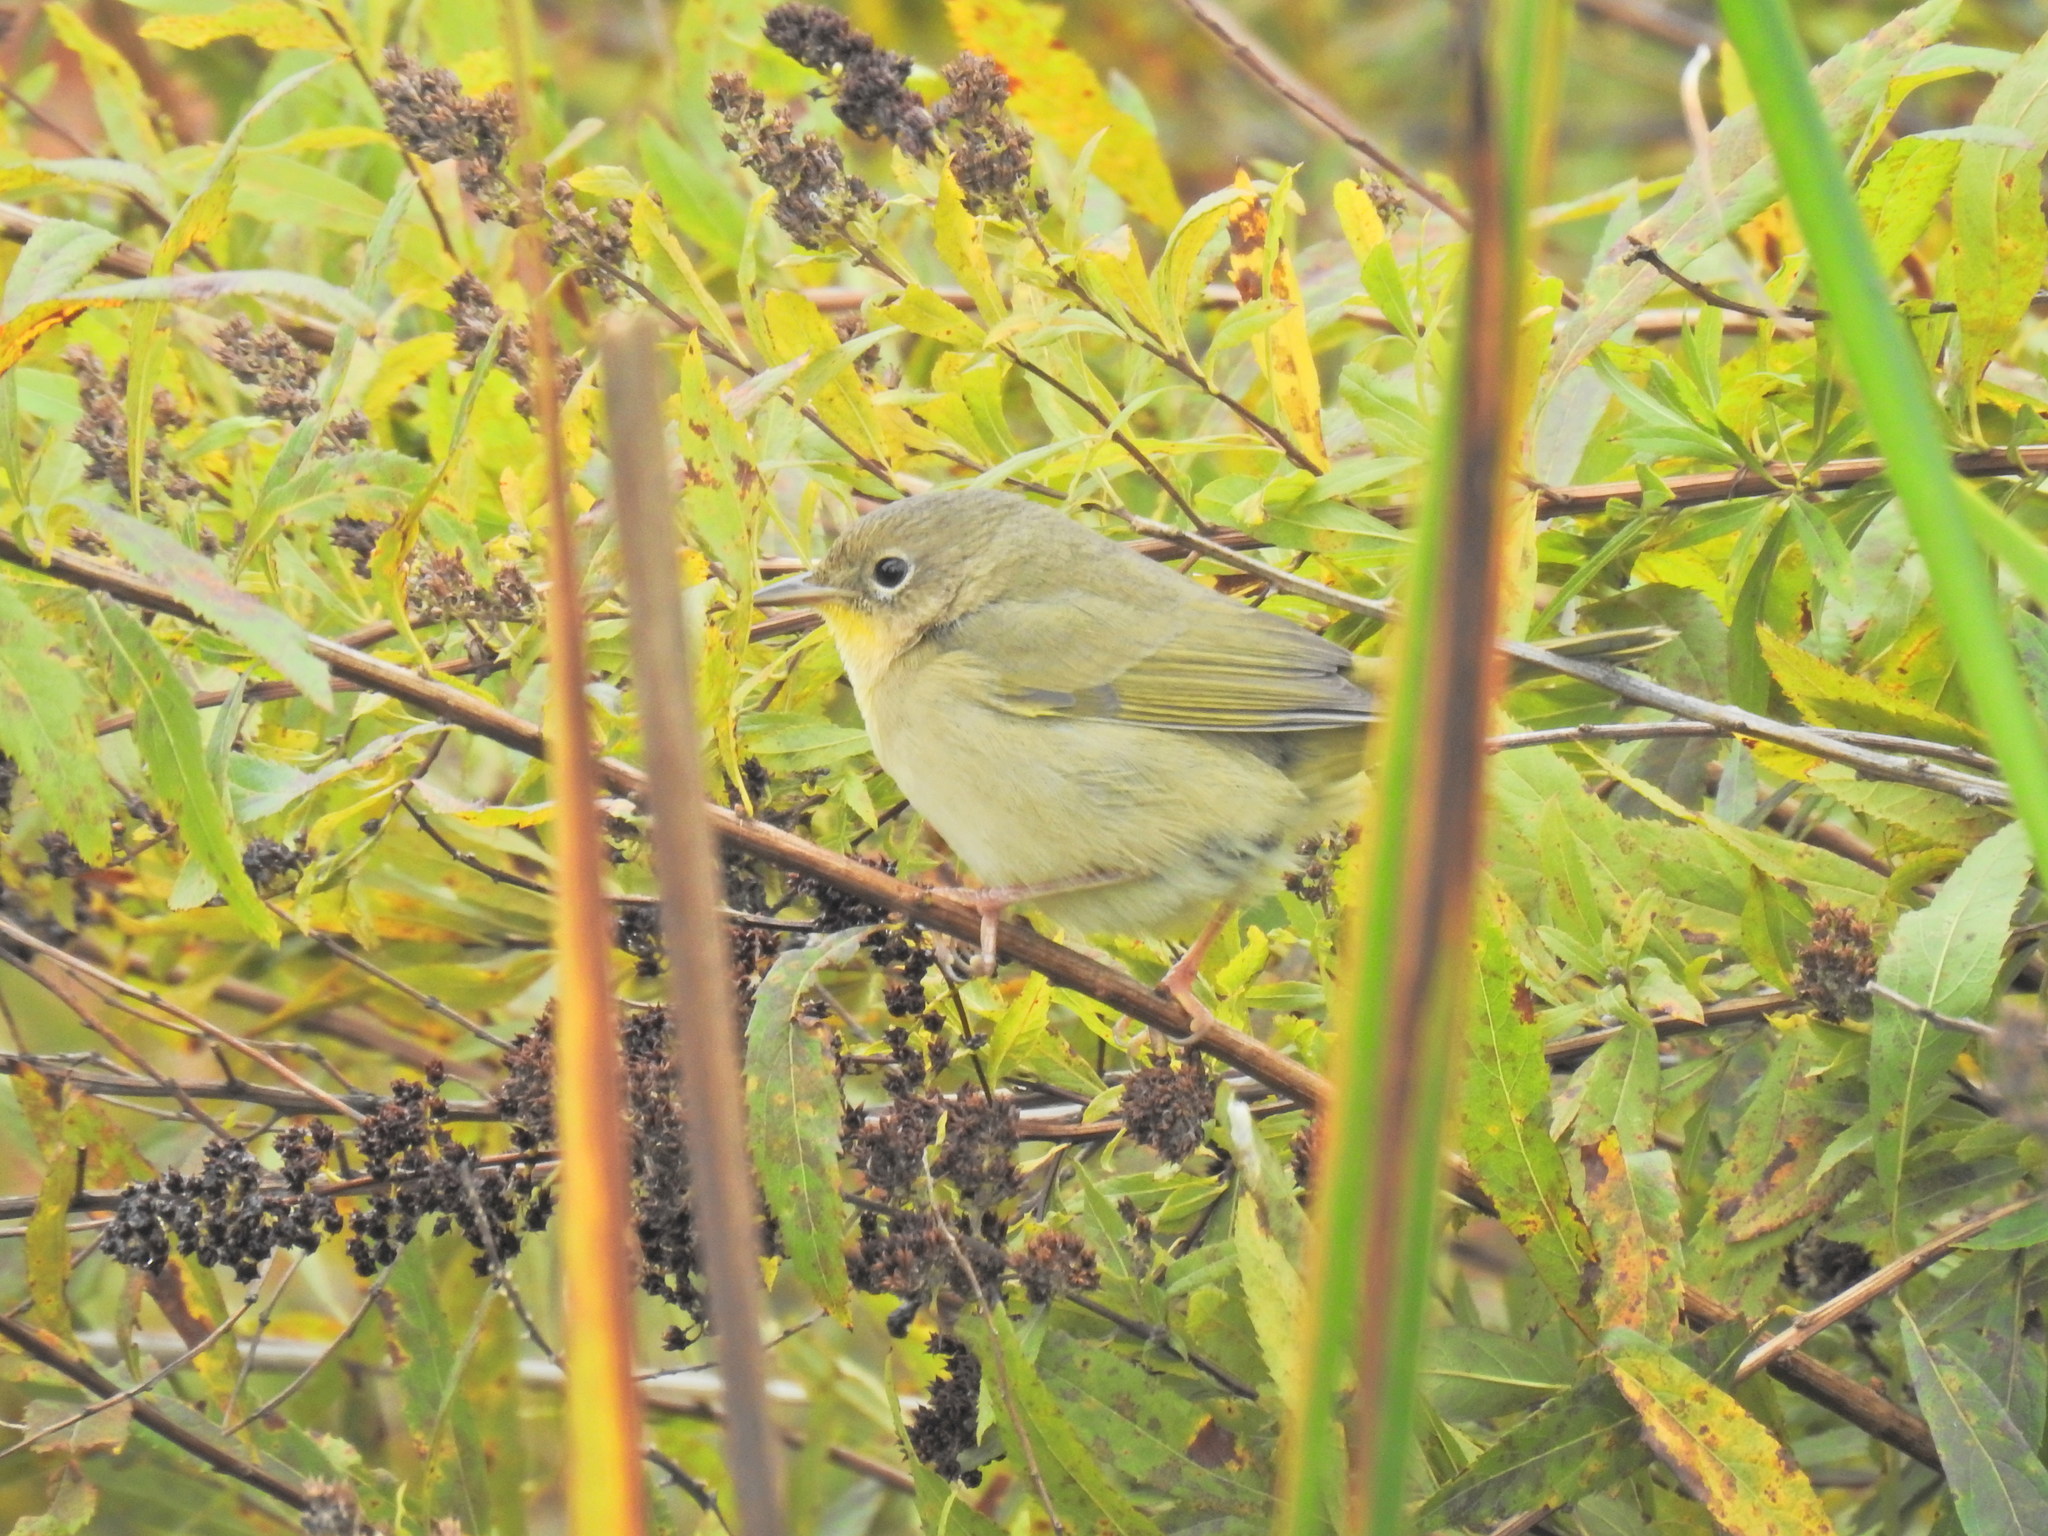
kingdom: Animalia
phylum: Chordata
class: Aves
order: Passeriformes
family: Parulidae
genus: Geothlypis
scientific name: Geothlypis trichas
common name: Common yellowthroat
